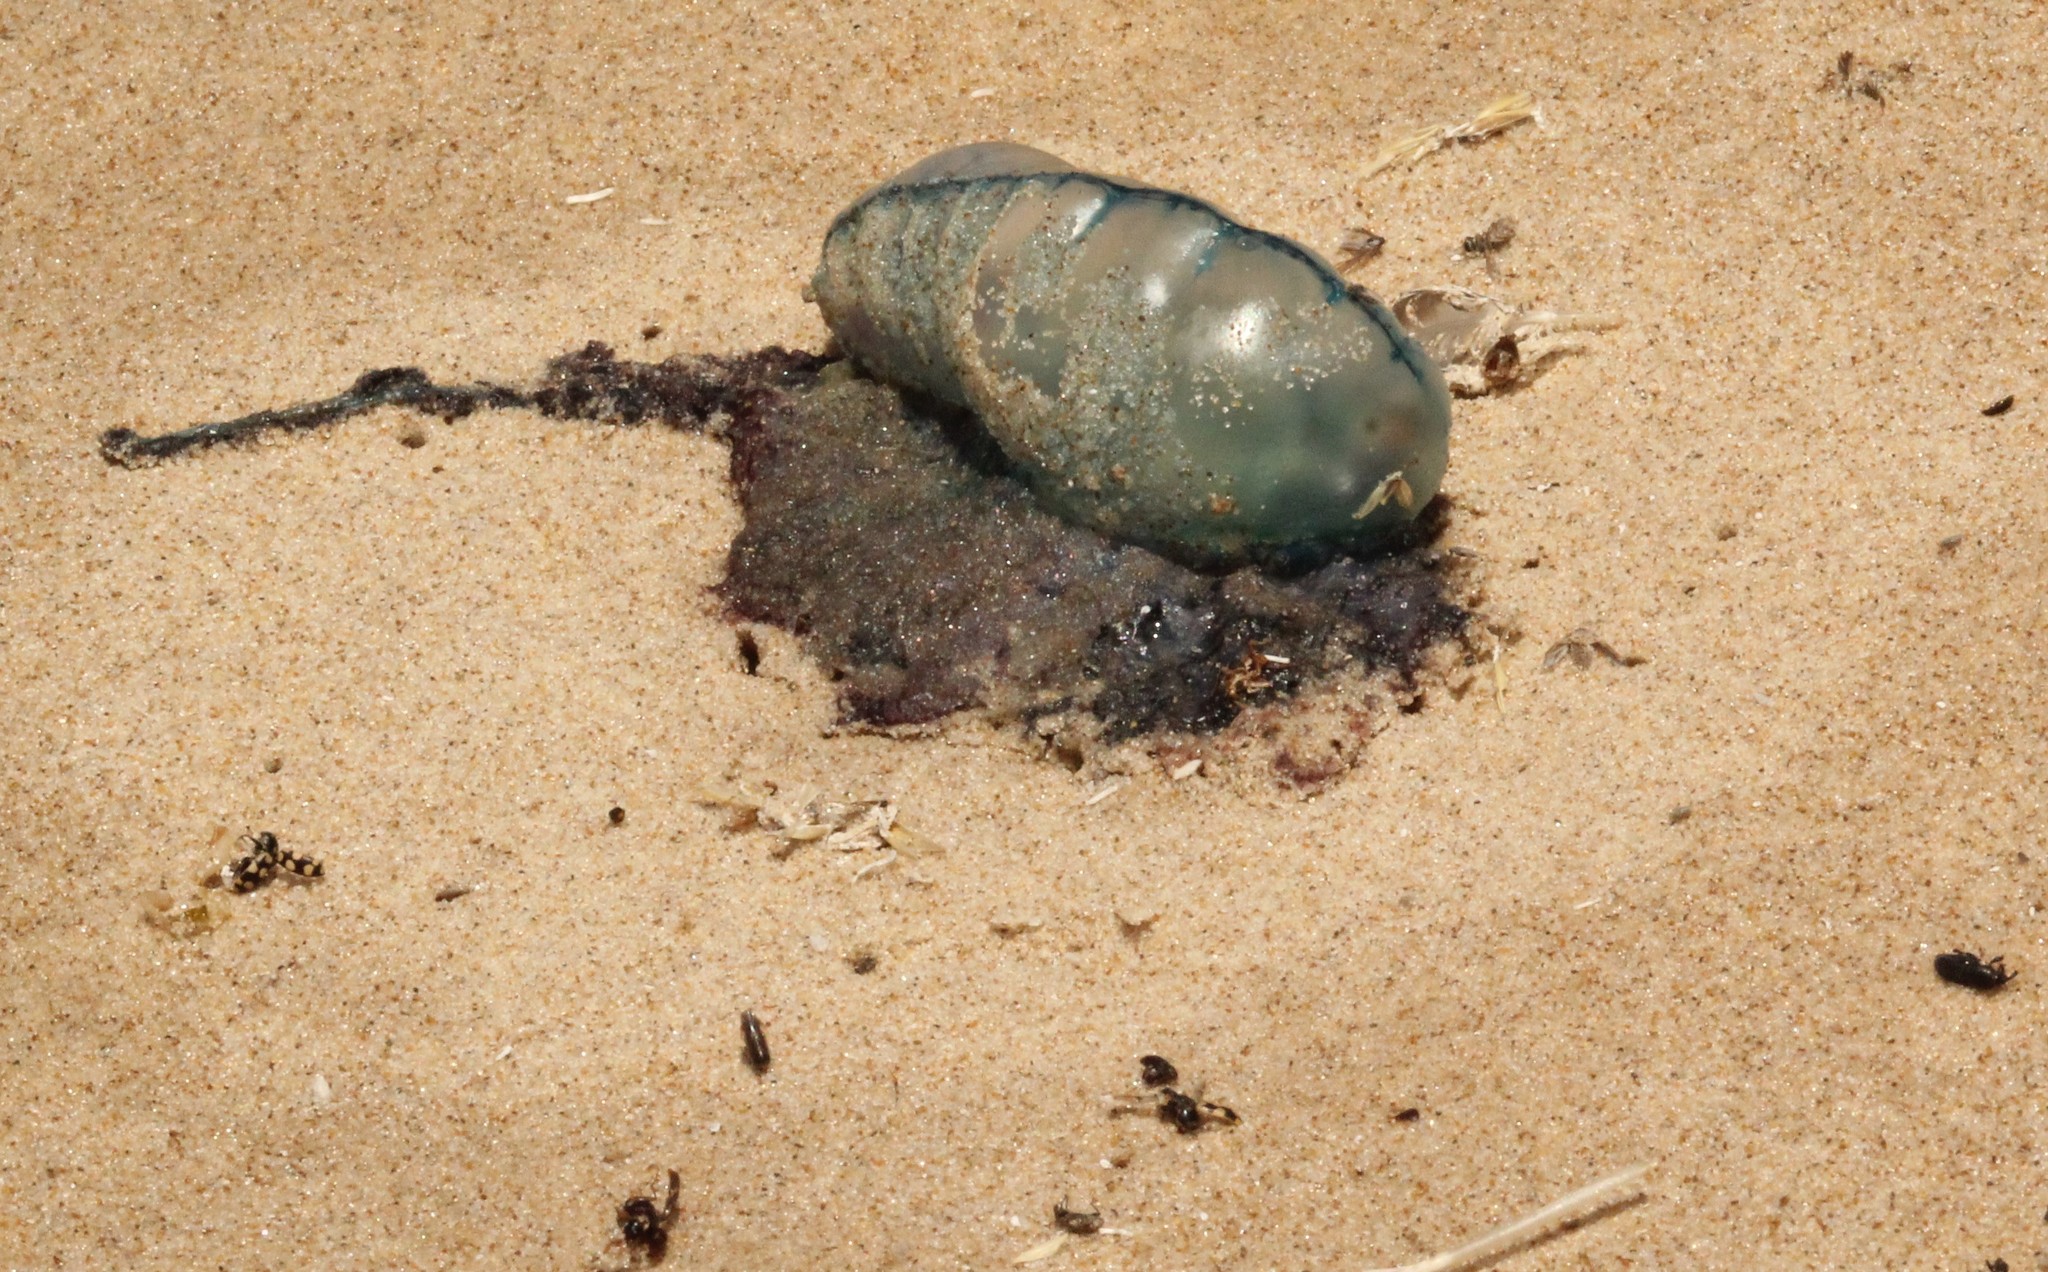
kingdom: Animalia
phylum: Cnidaria
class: Hydrozoa
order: Siphonophorae
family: Physaliidae
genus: Physalia
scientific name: Physalia physalis
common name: Portuguese man-of-war
